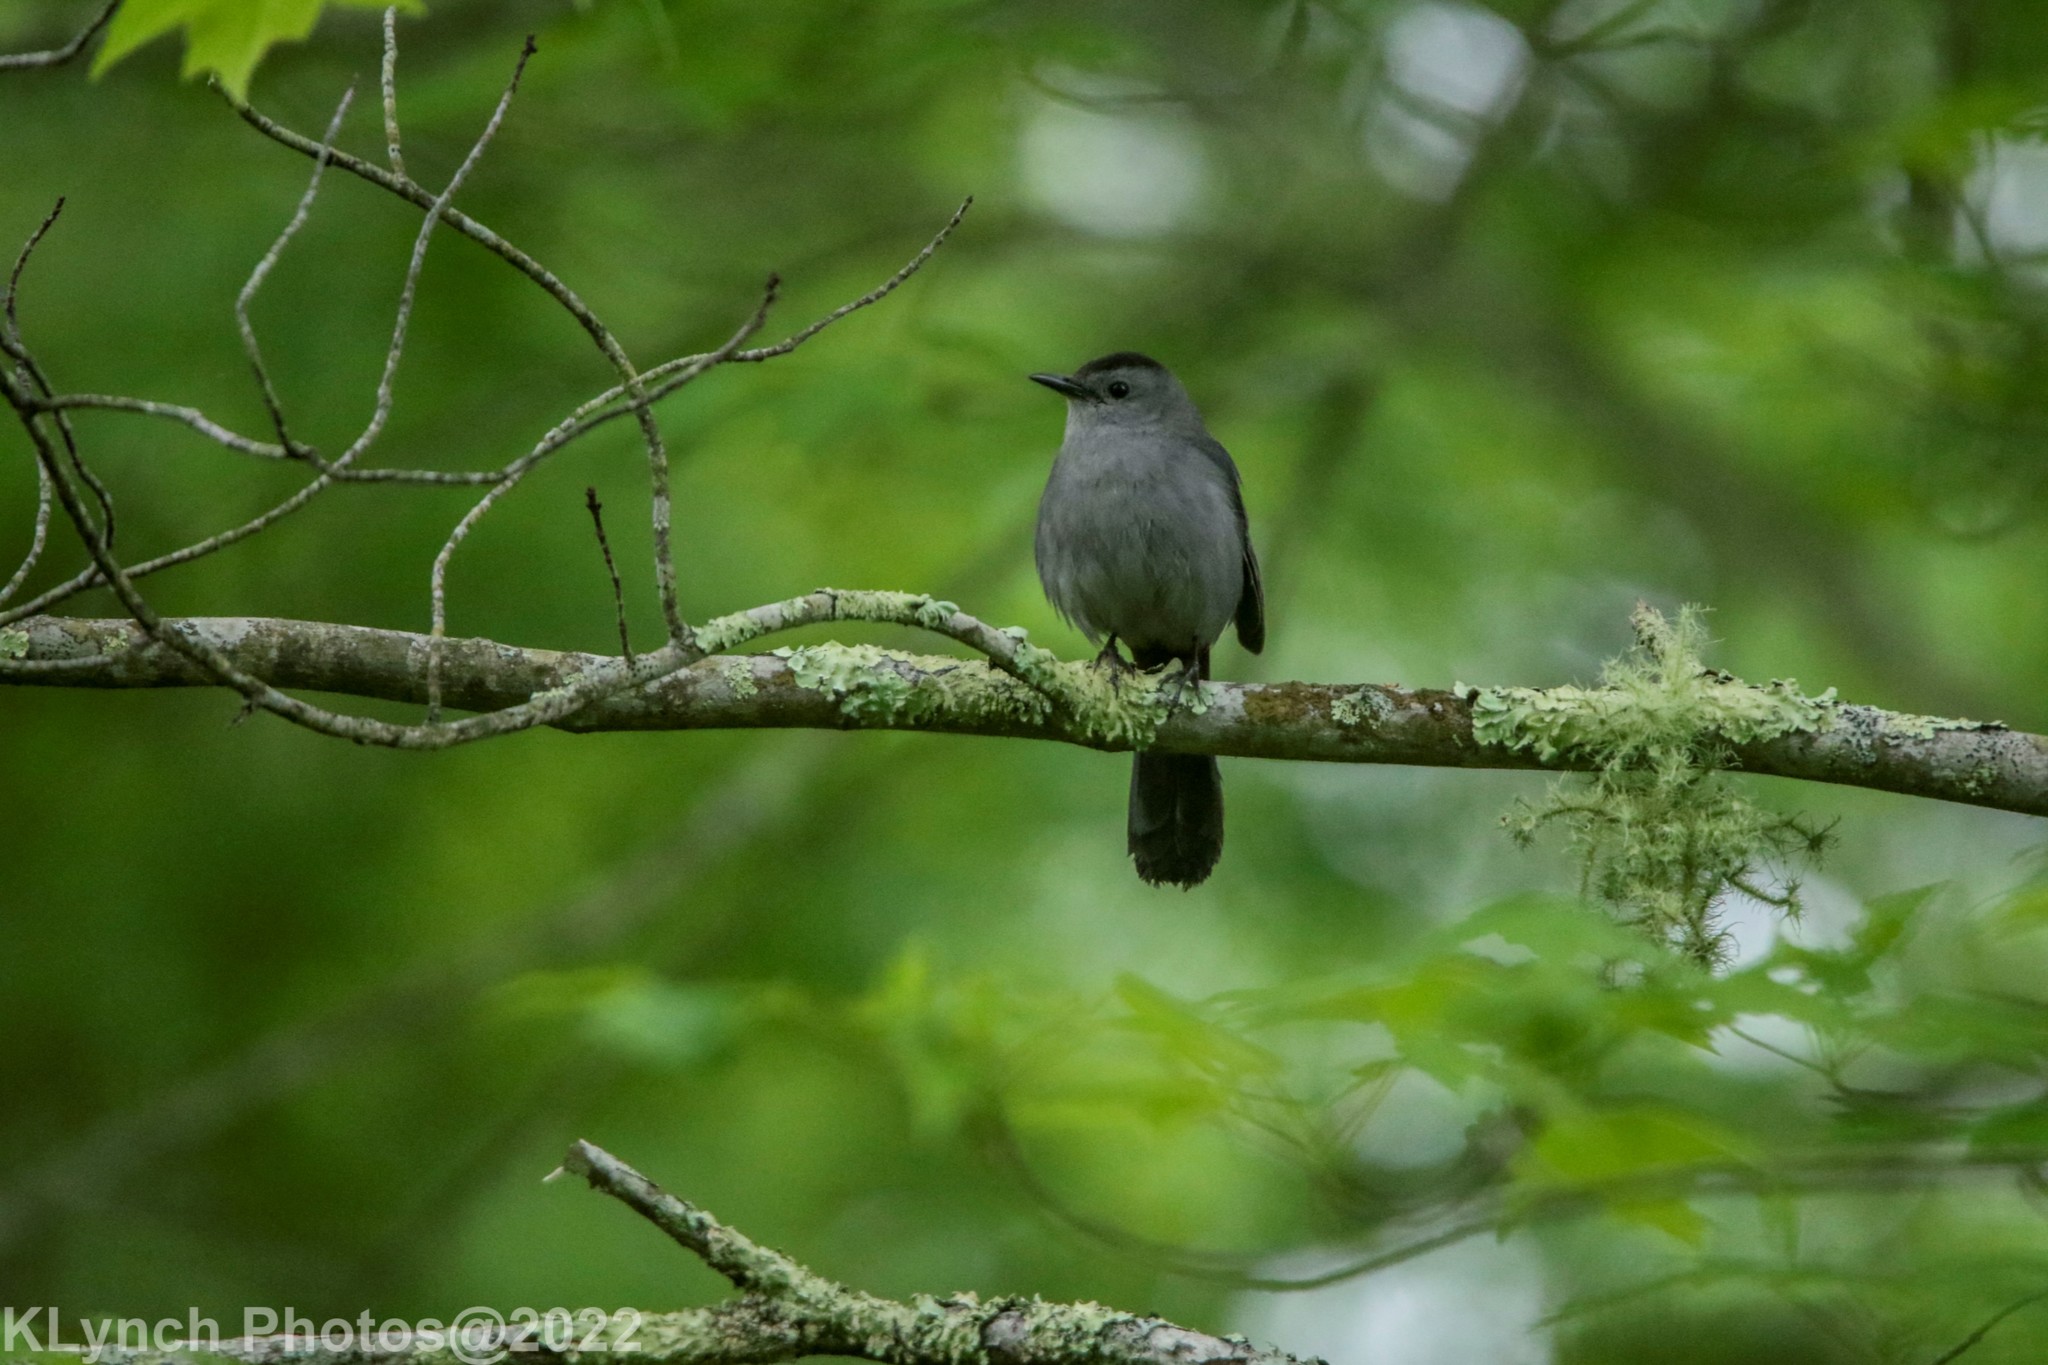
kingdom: Animalia
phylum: Chordata
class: Aves
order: Passeriformes
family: Mimidae
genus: Dumetella
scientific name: Dumetella carolinensis
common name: Gray catbird
